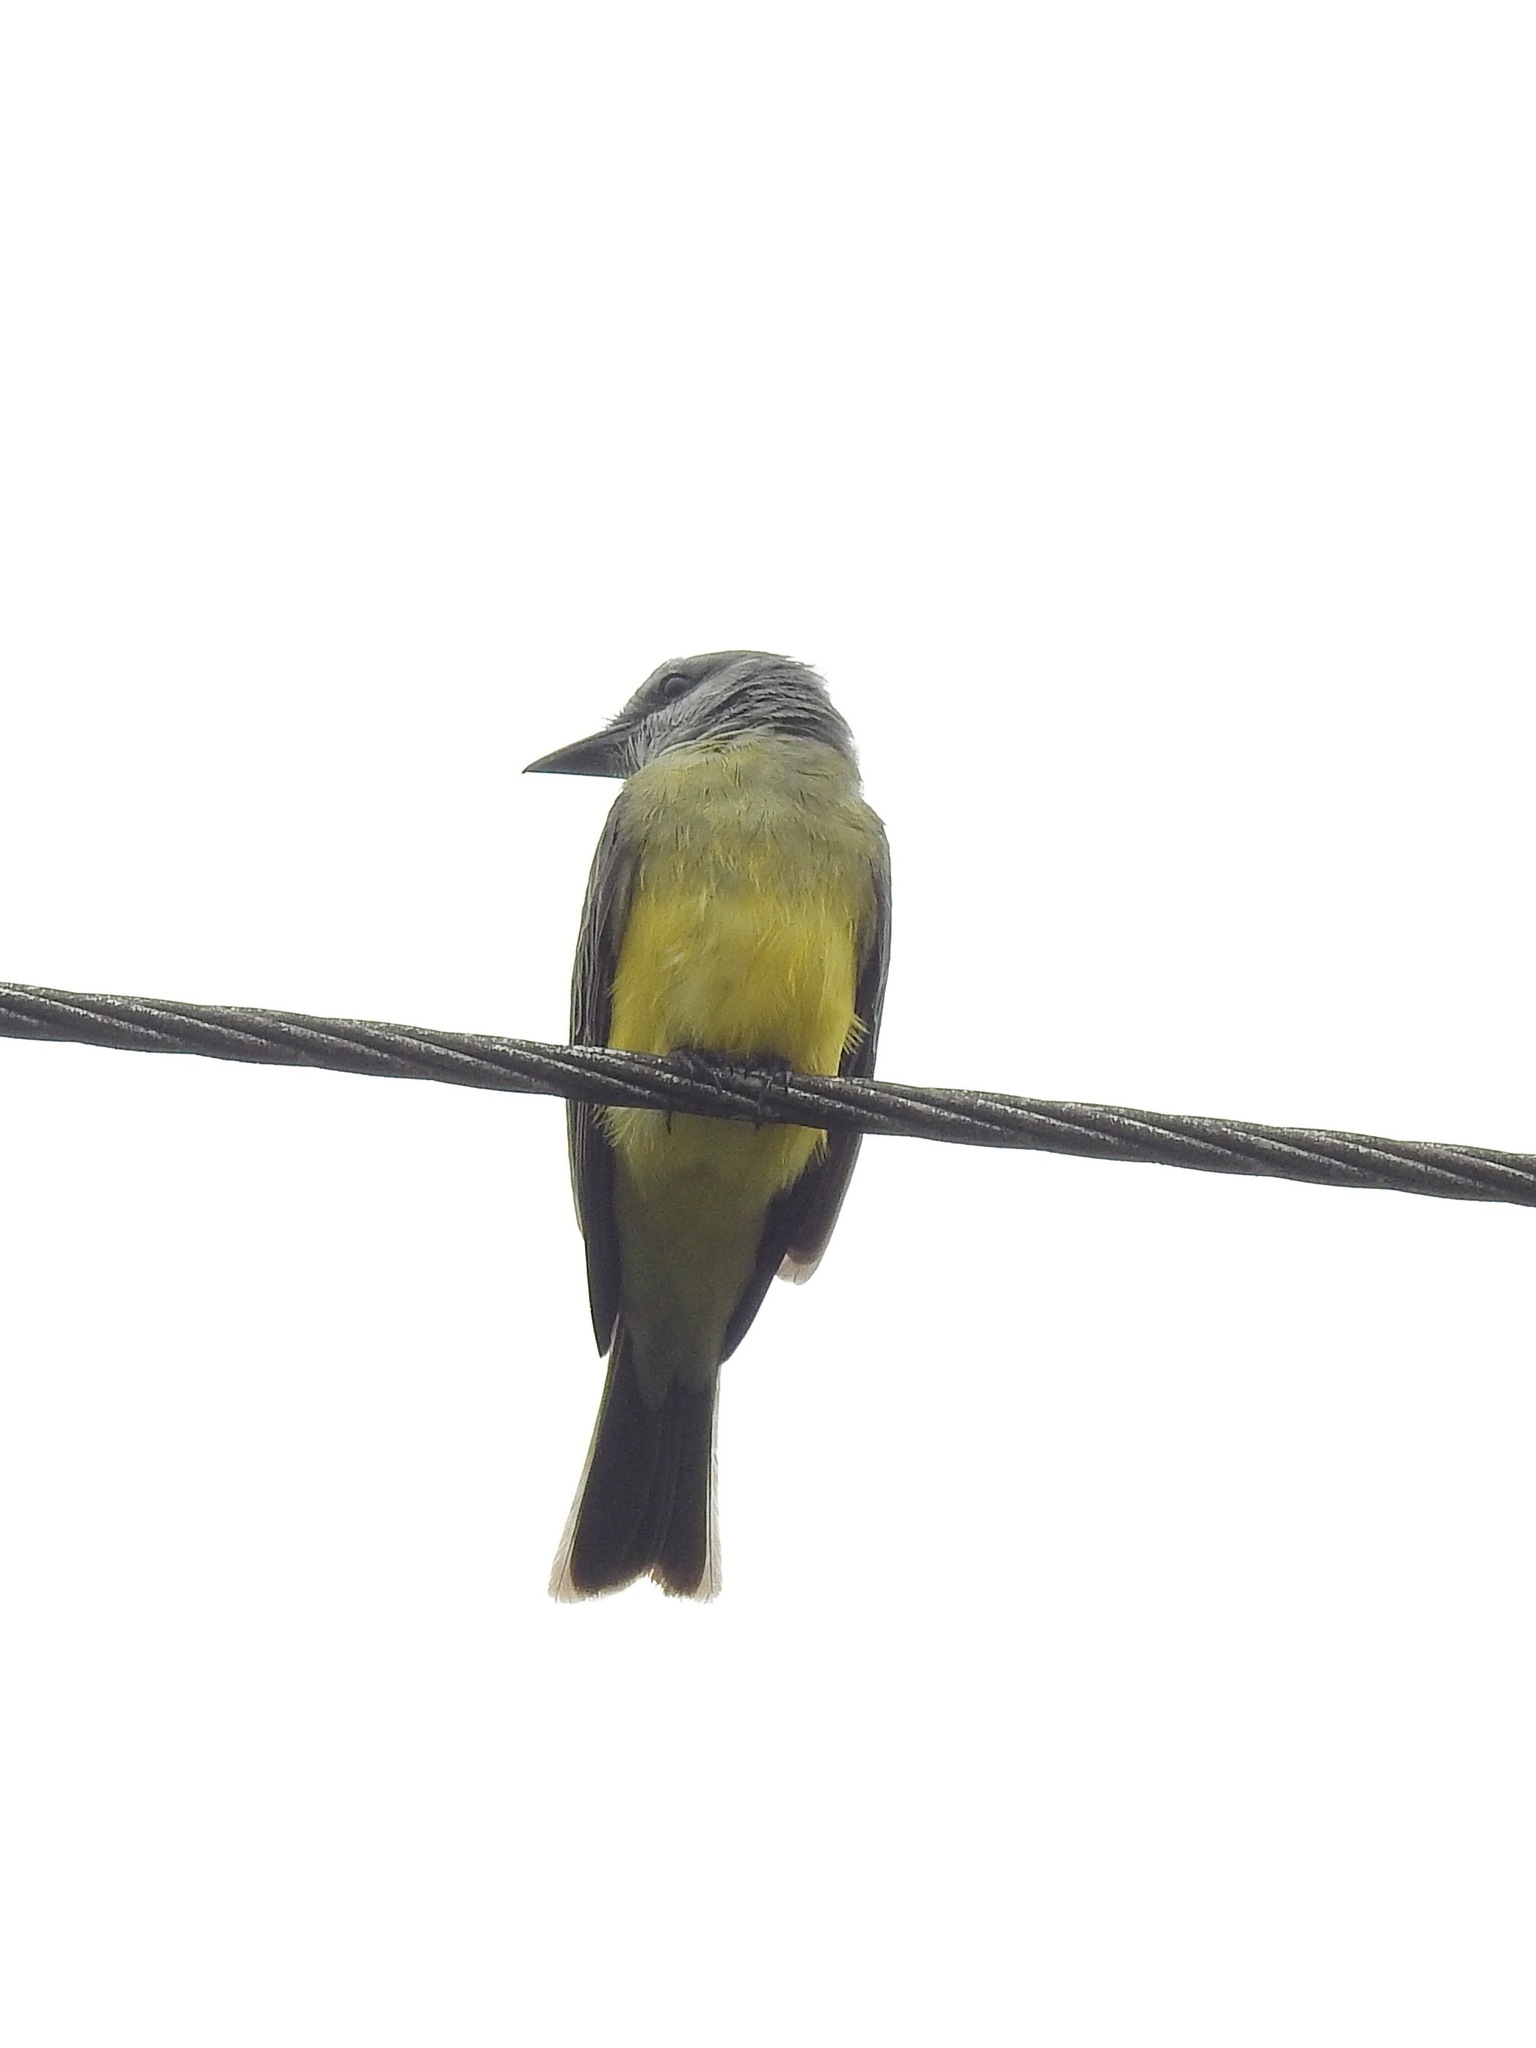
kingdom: Animalia
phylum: Chordata
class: Aves
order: Passeriformes
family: Tyrannidae
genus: Tyrannus
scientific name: Tyrannus melancholicus
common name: Tropical kingbird
